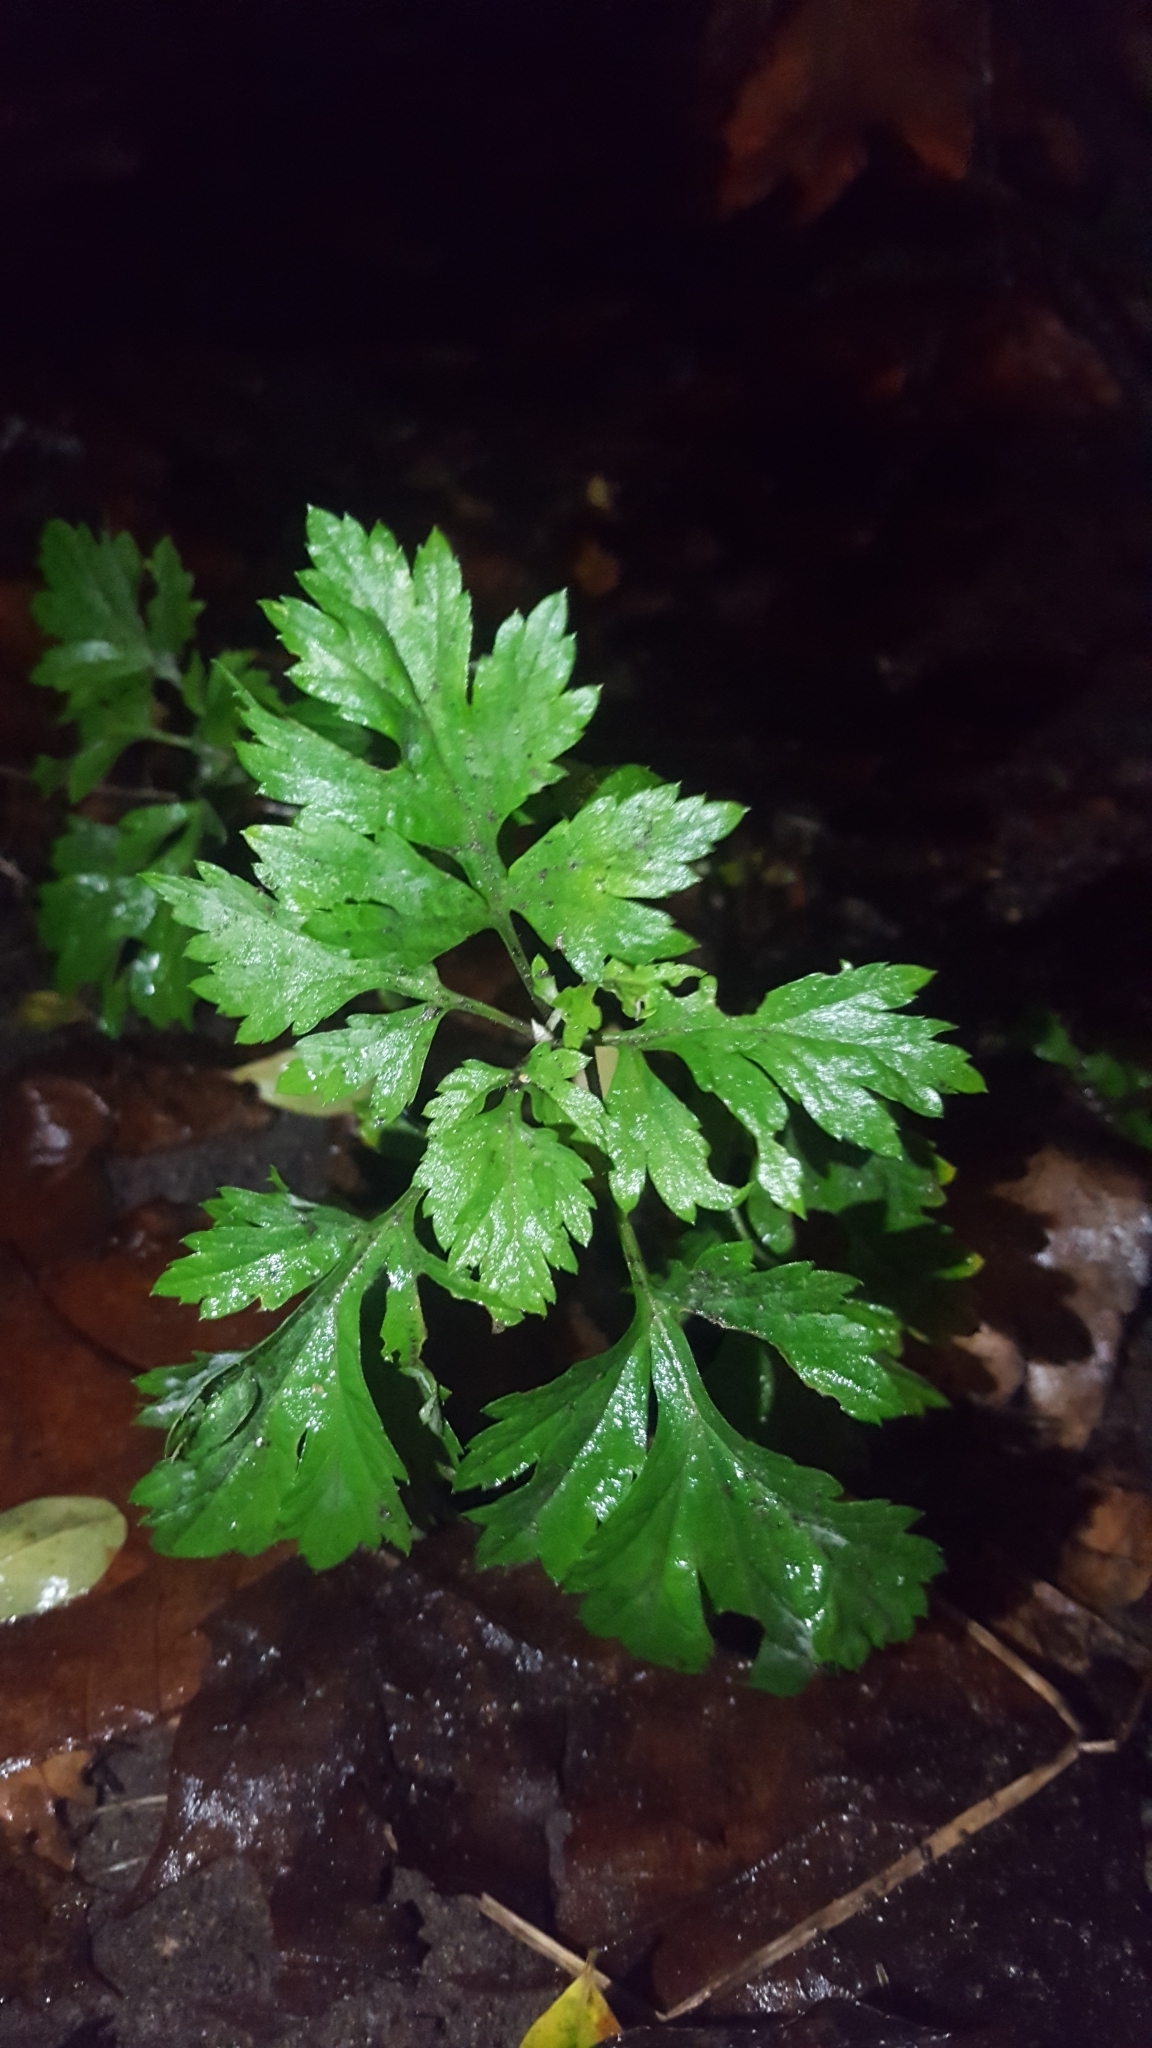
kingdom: Plantae
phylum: Tracheophyta
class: Magnoliopsida
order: Asterales
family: Asteraceae
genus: Artemisia
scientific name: Artemisia vulgaris
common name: Mugwort
